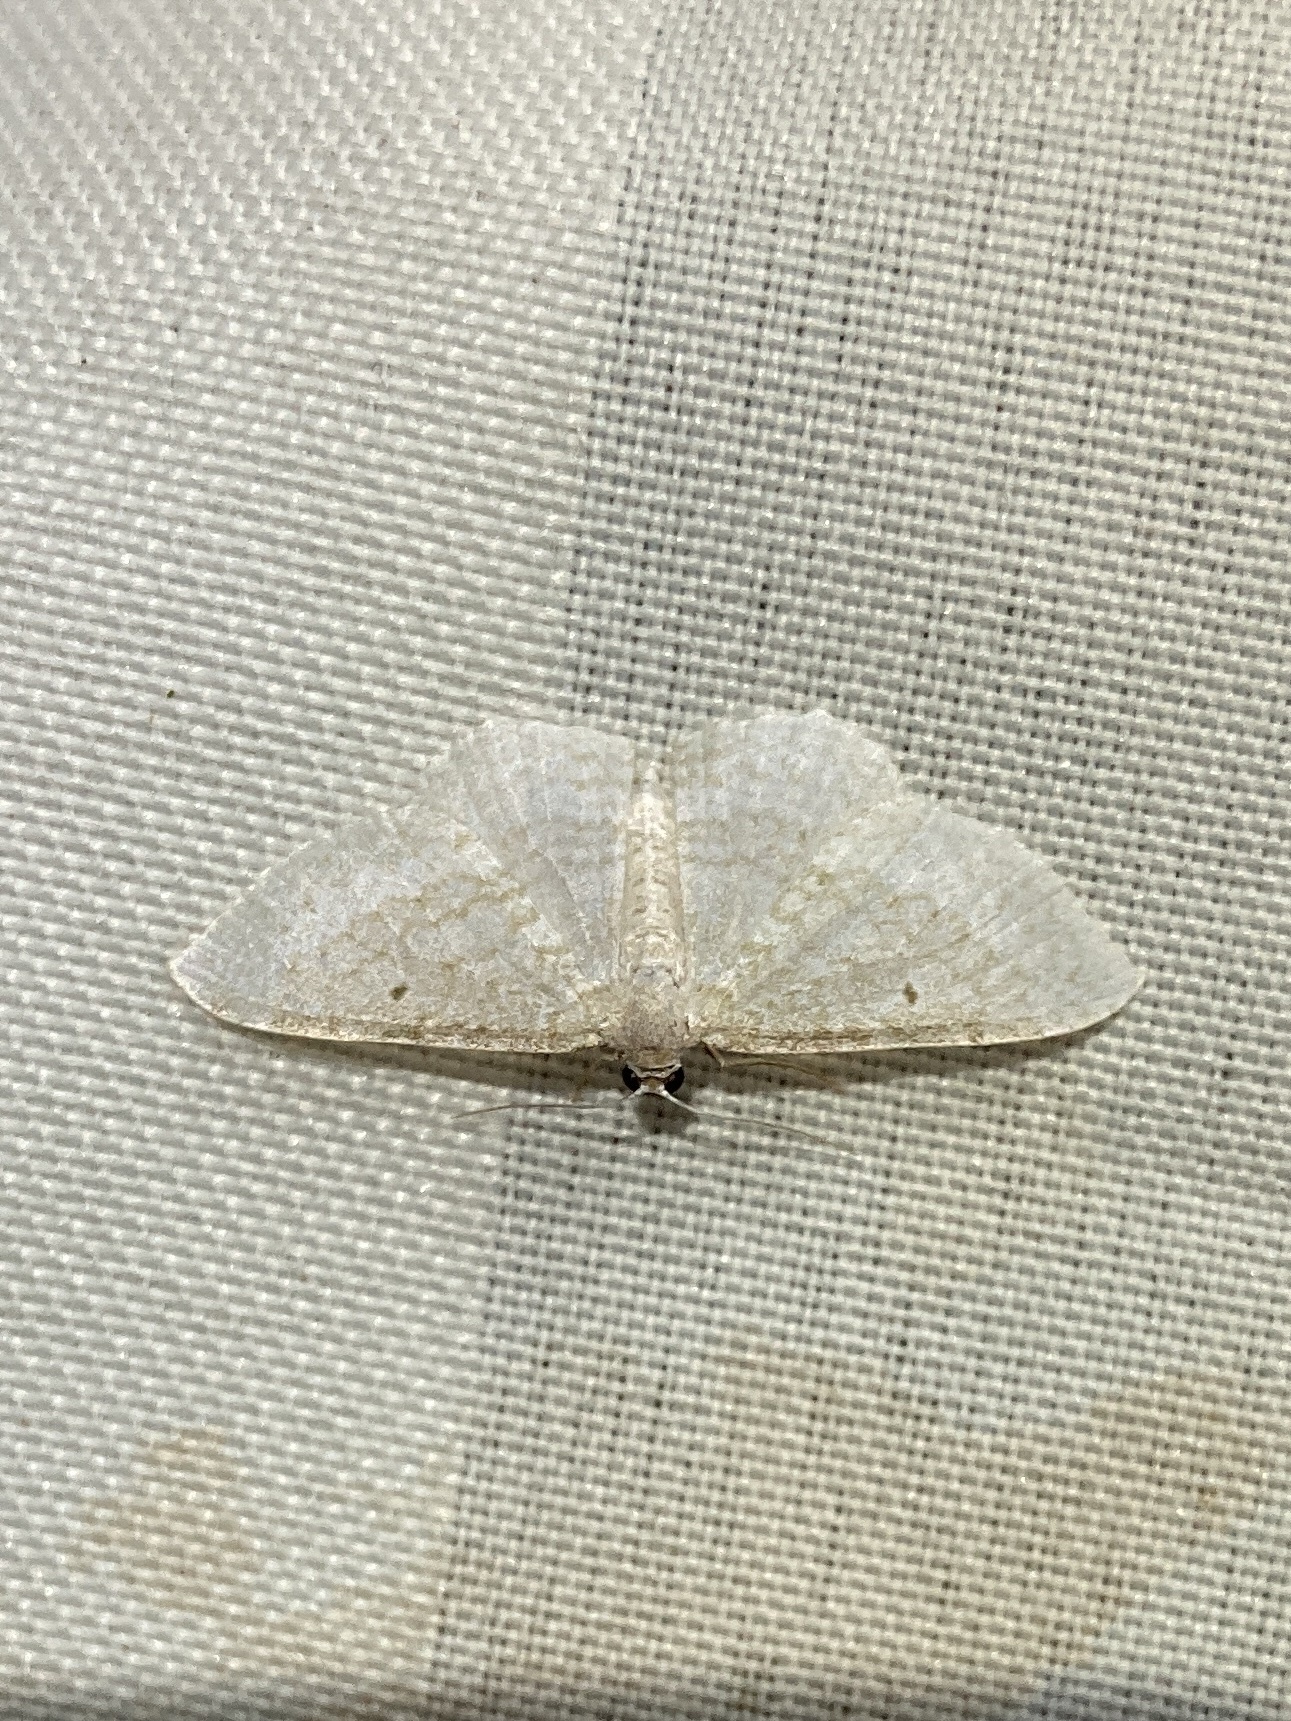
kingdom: Animalia
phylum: Arthropoda
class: Insecta
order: Lepidoptera
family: Geometridae
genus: Poecilasthena
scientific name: Poecilasthena pulchraria
